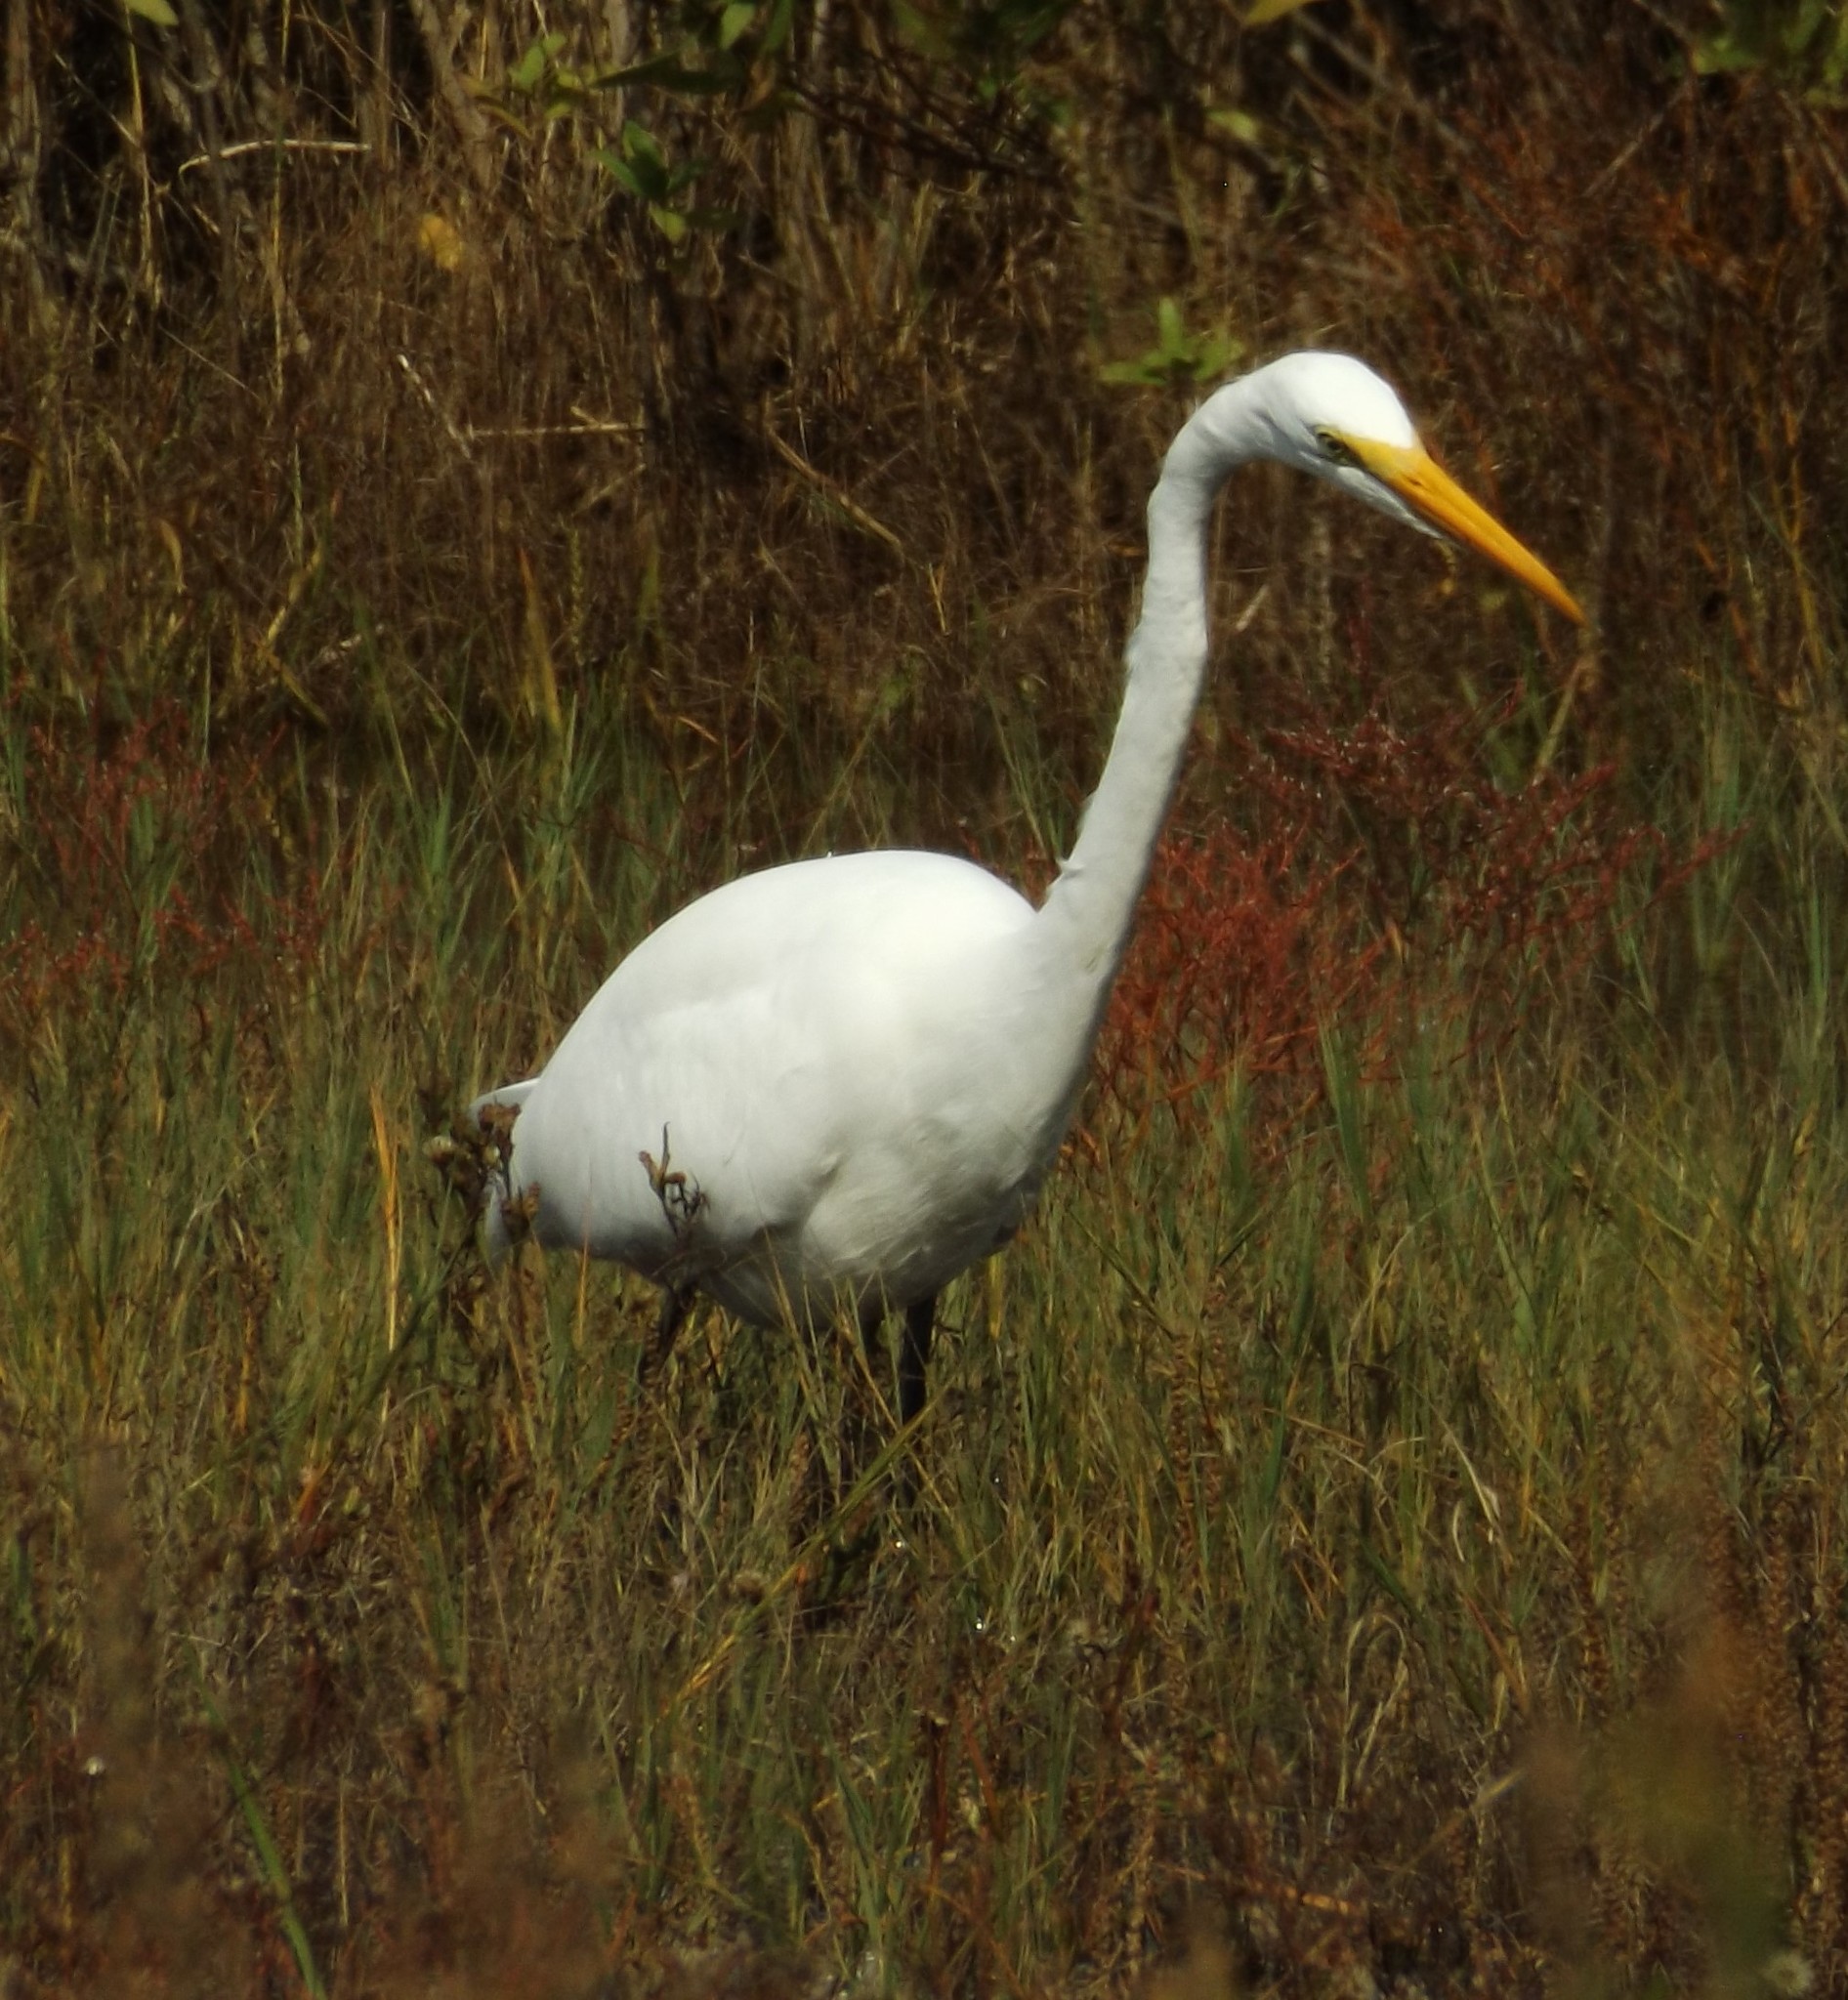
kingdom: Animalia
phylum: Chordata
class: Aves
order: Pelecaniformes
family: Ardeidae
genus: Ardea
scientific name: Ardea alba
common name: Great egret
